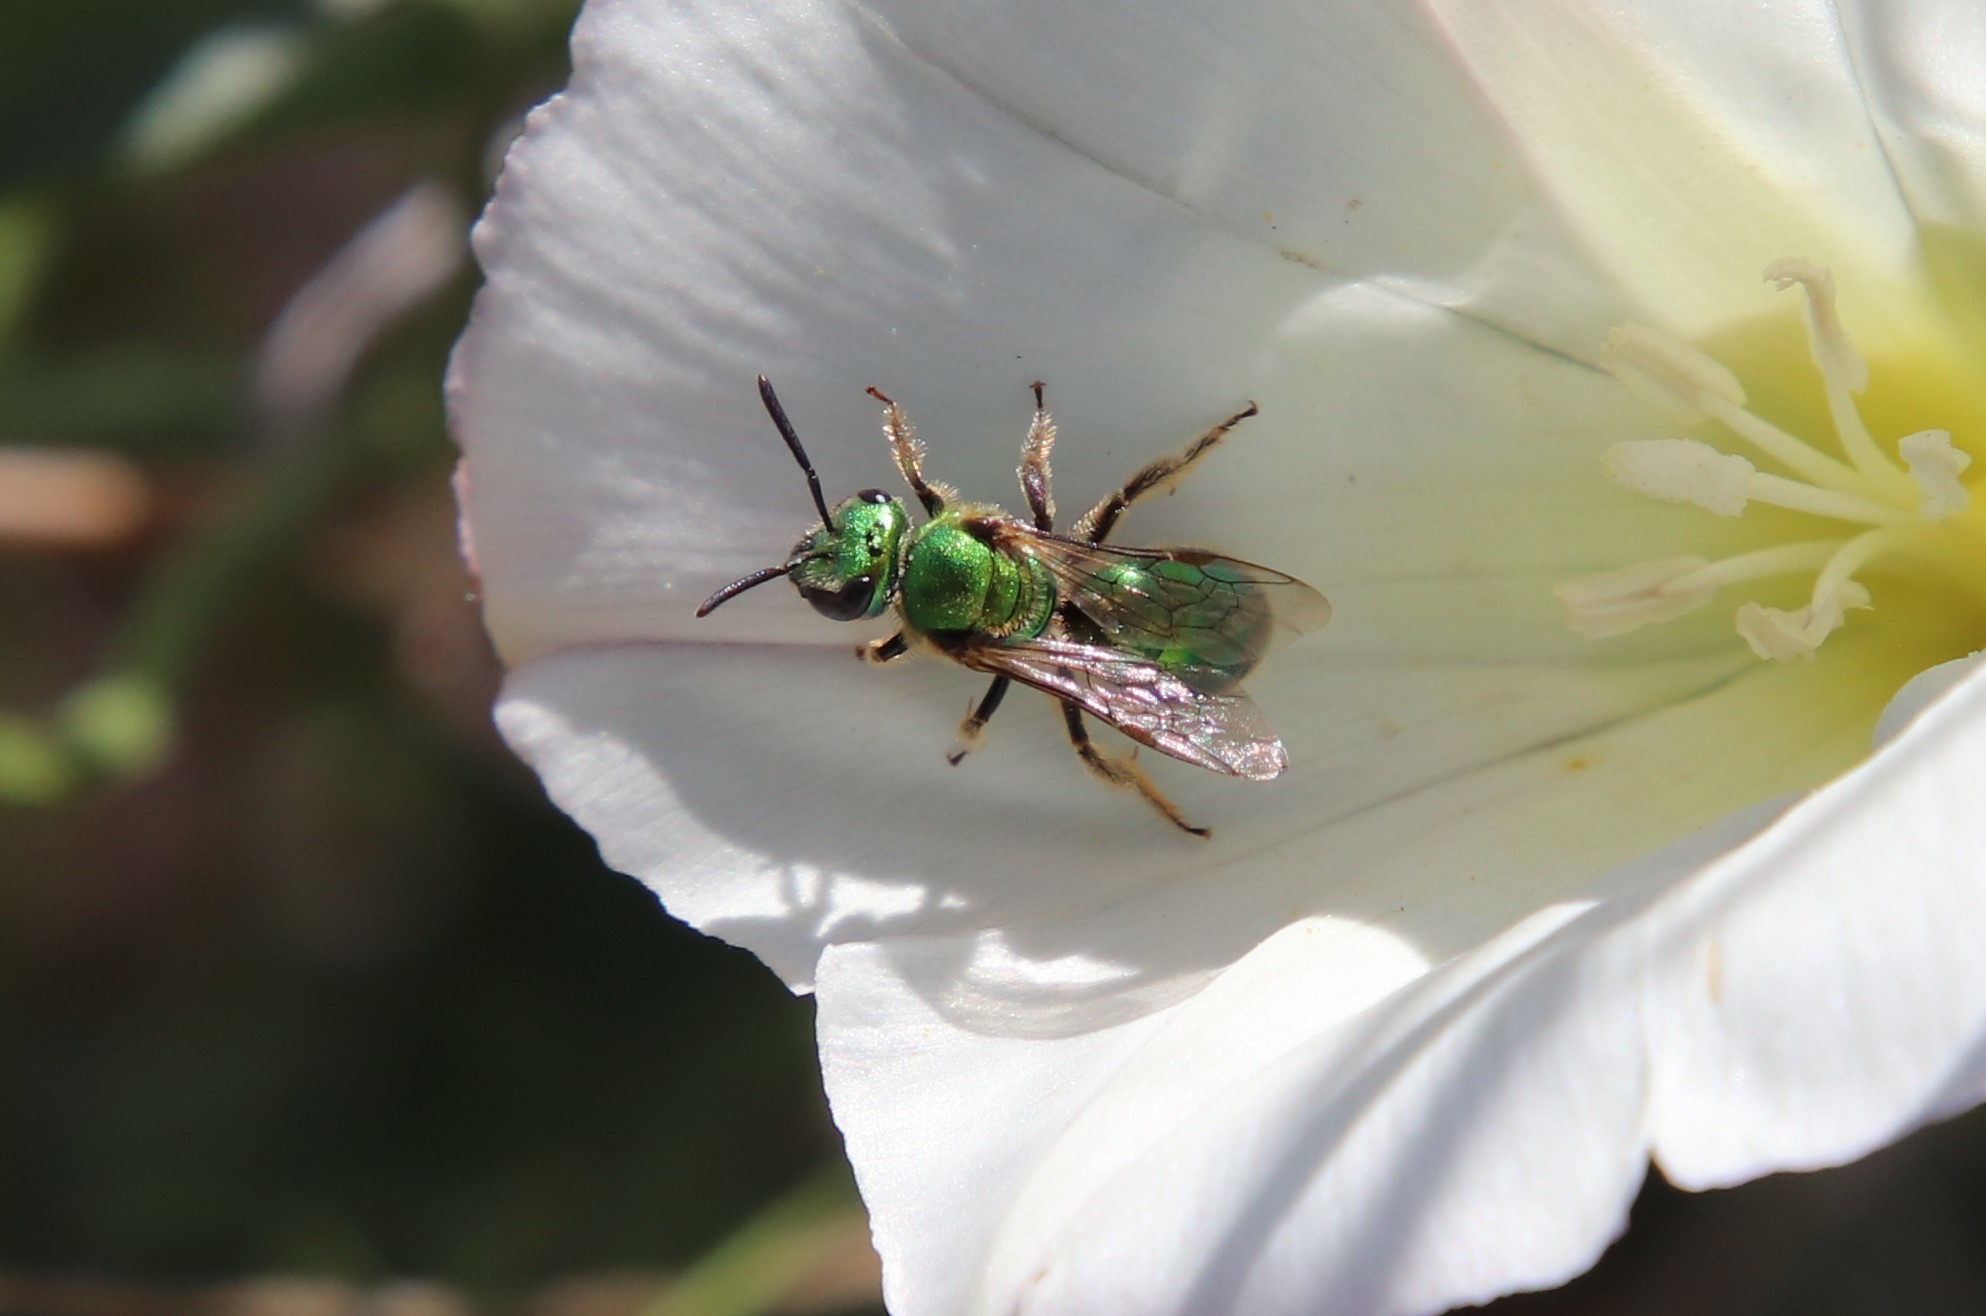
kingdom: Animalia
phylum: Arthropoda
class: Insecta
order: Hymenoptera
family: Halictidae
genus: Augochlorella
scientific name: Augochlorella pomoniella
